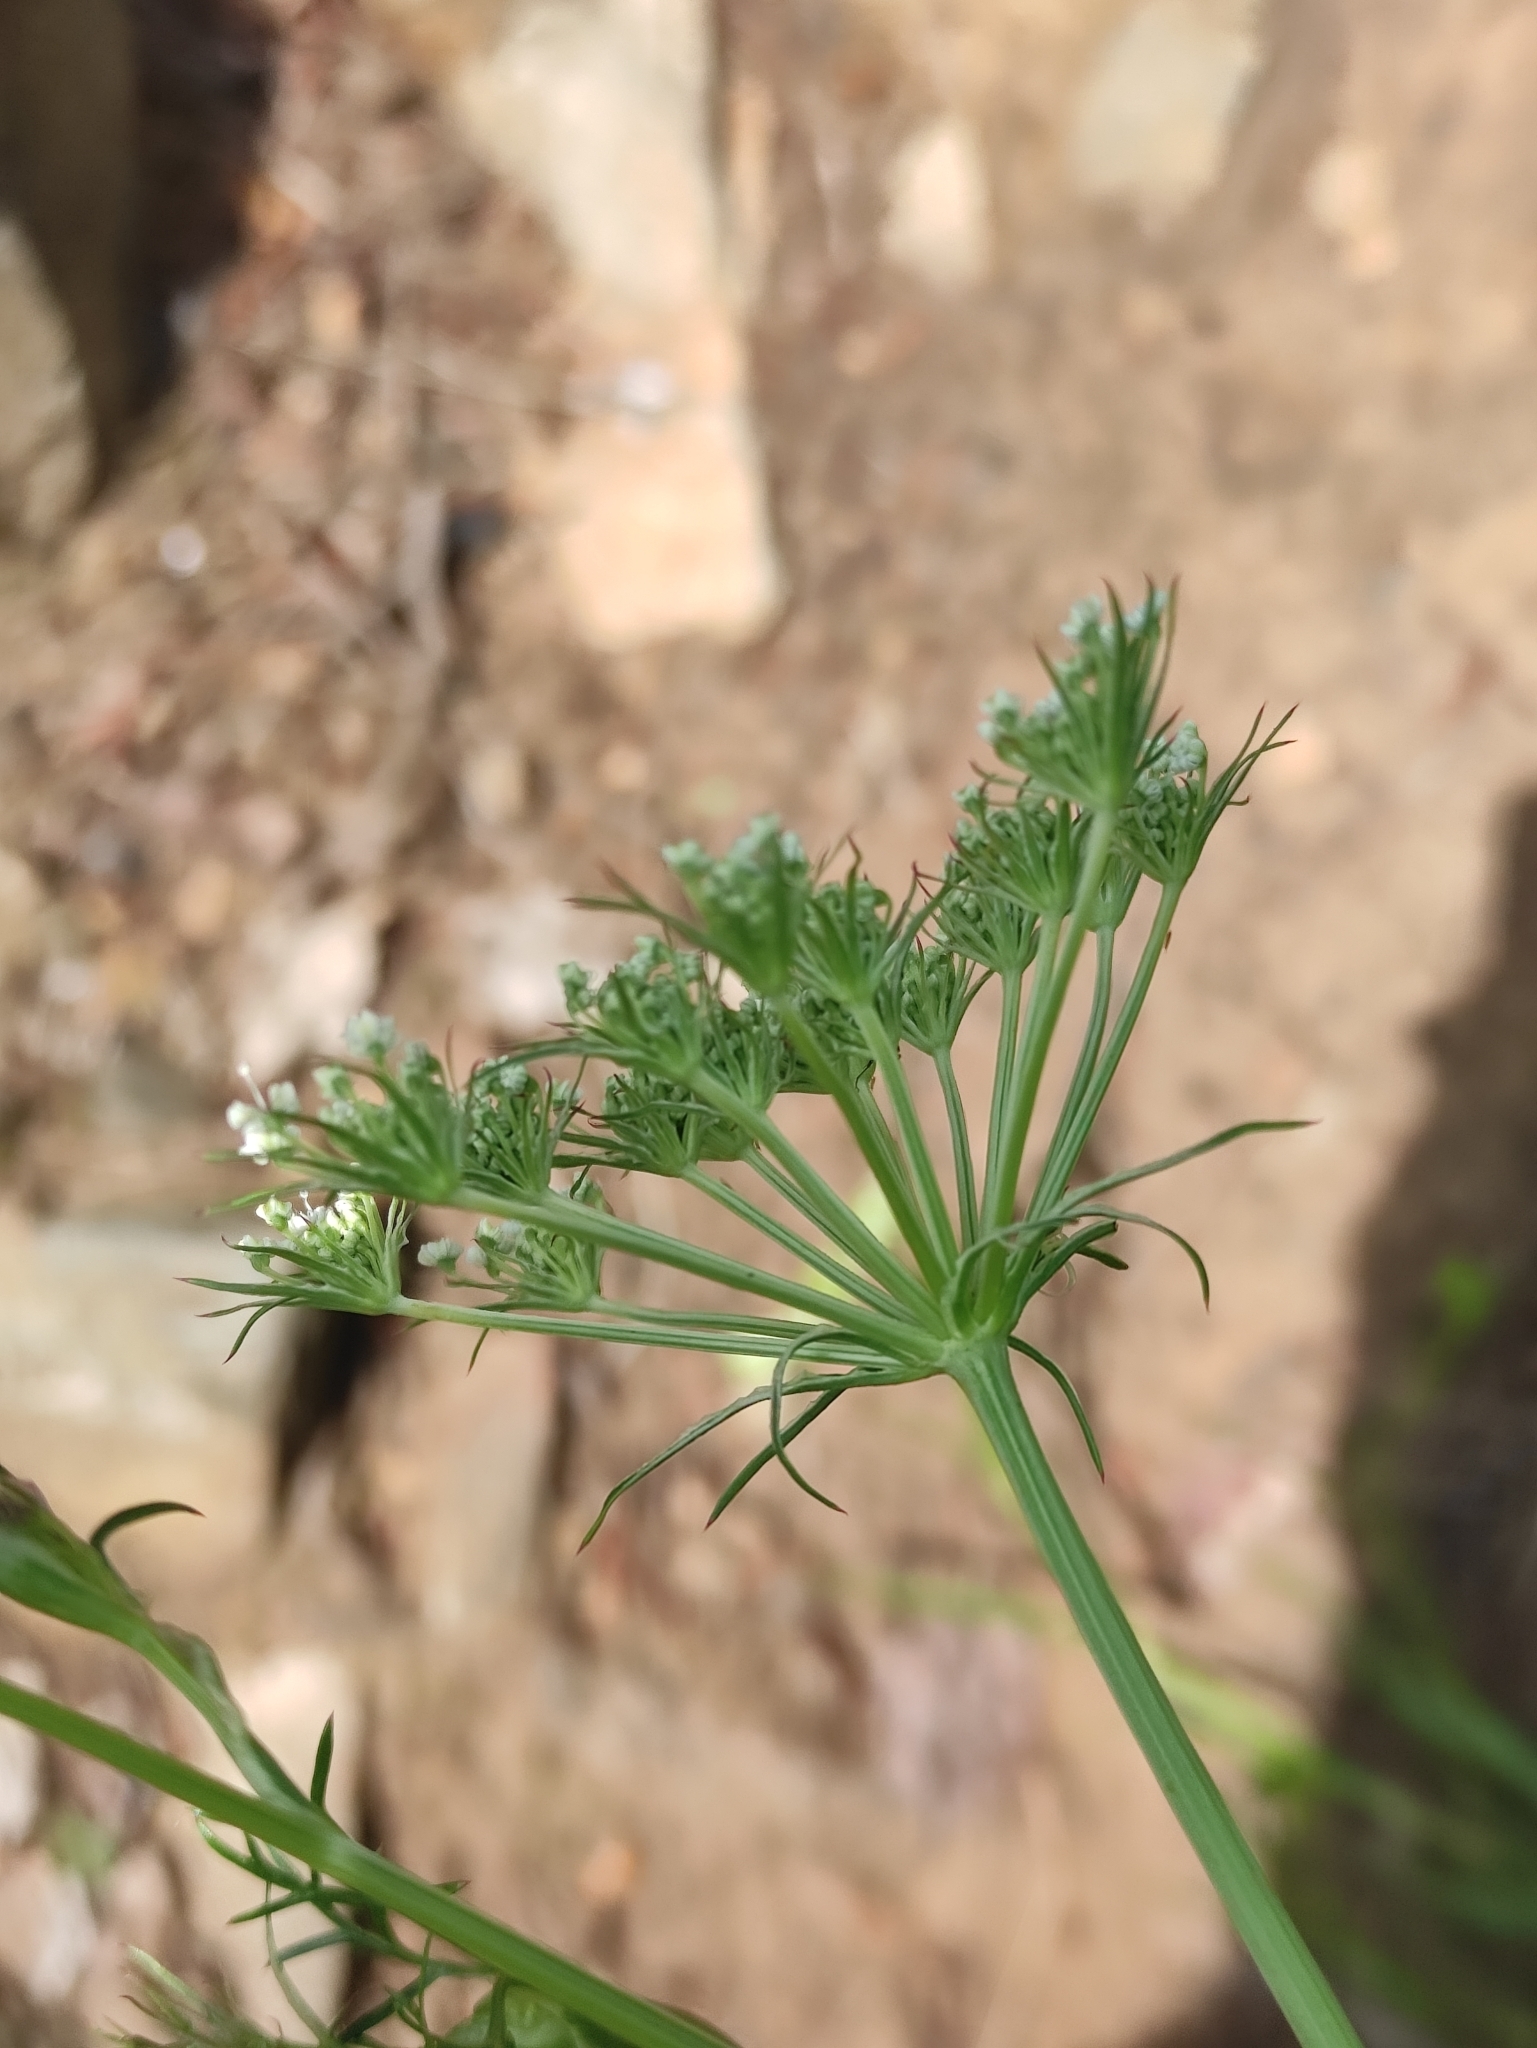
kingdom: Plantae
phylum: Tracheophyta
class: Magnoliopsida
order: Apiales
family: Apiaceae
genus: Kitagawia
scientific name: Kitagawia baicalensis
